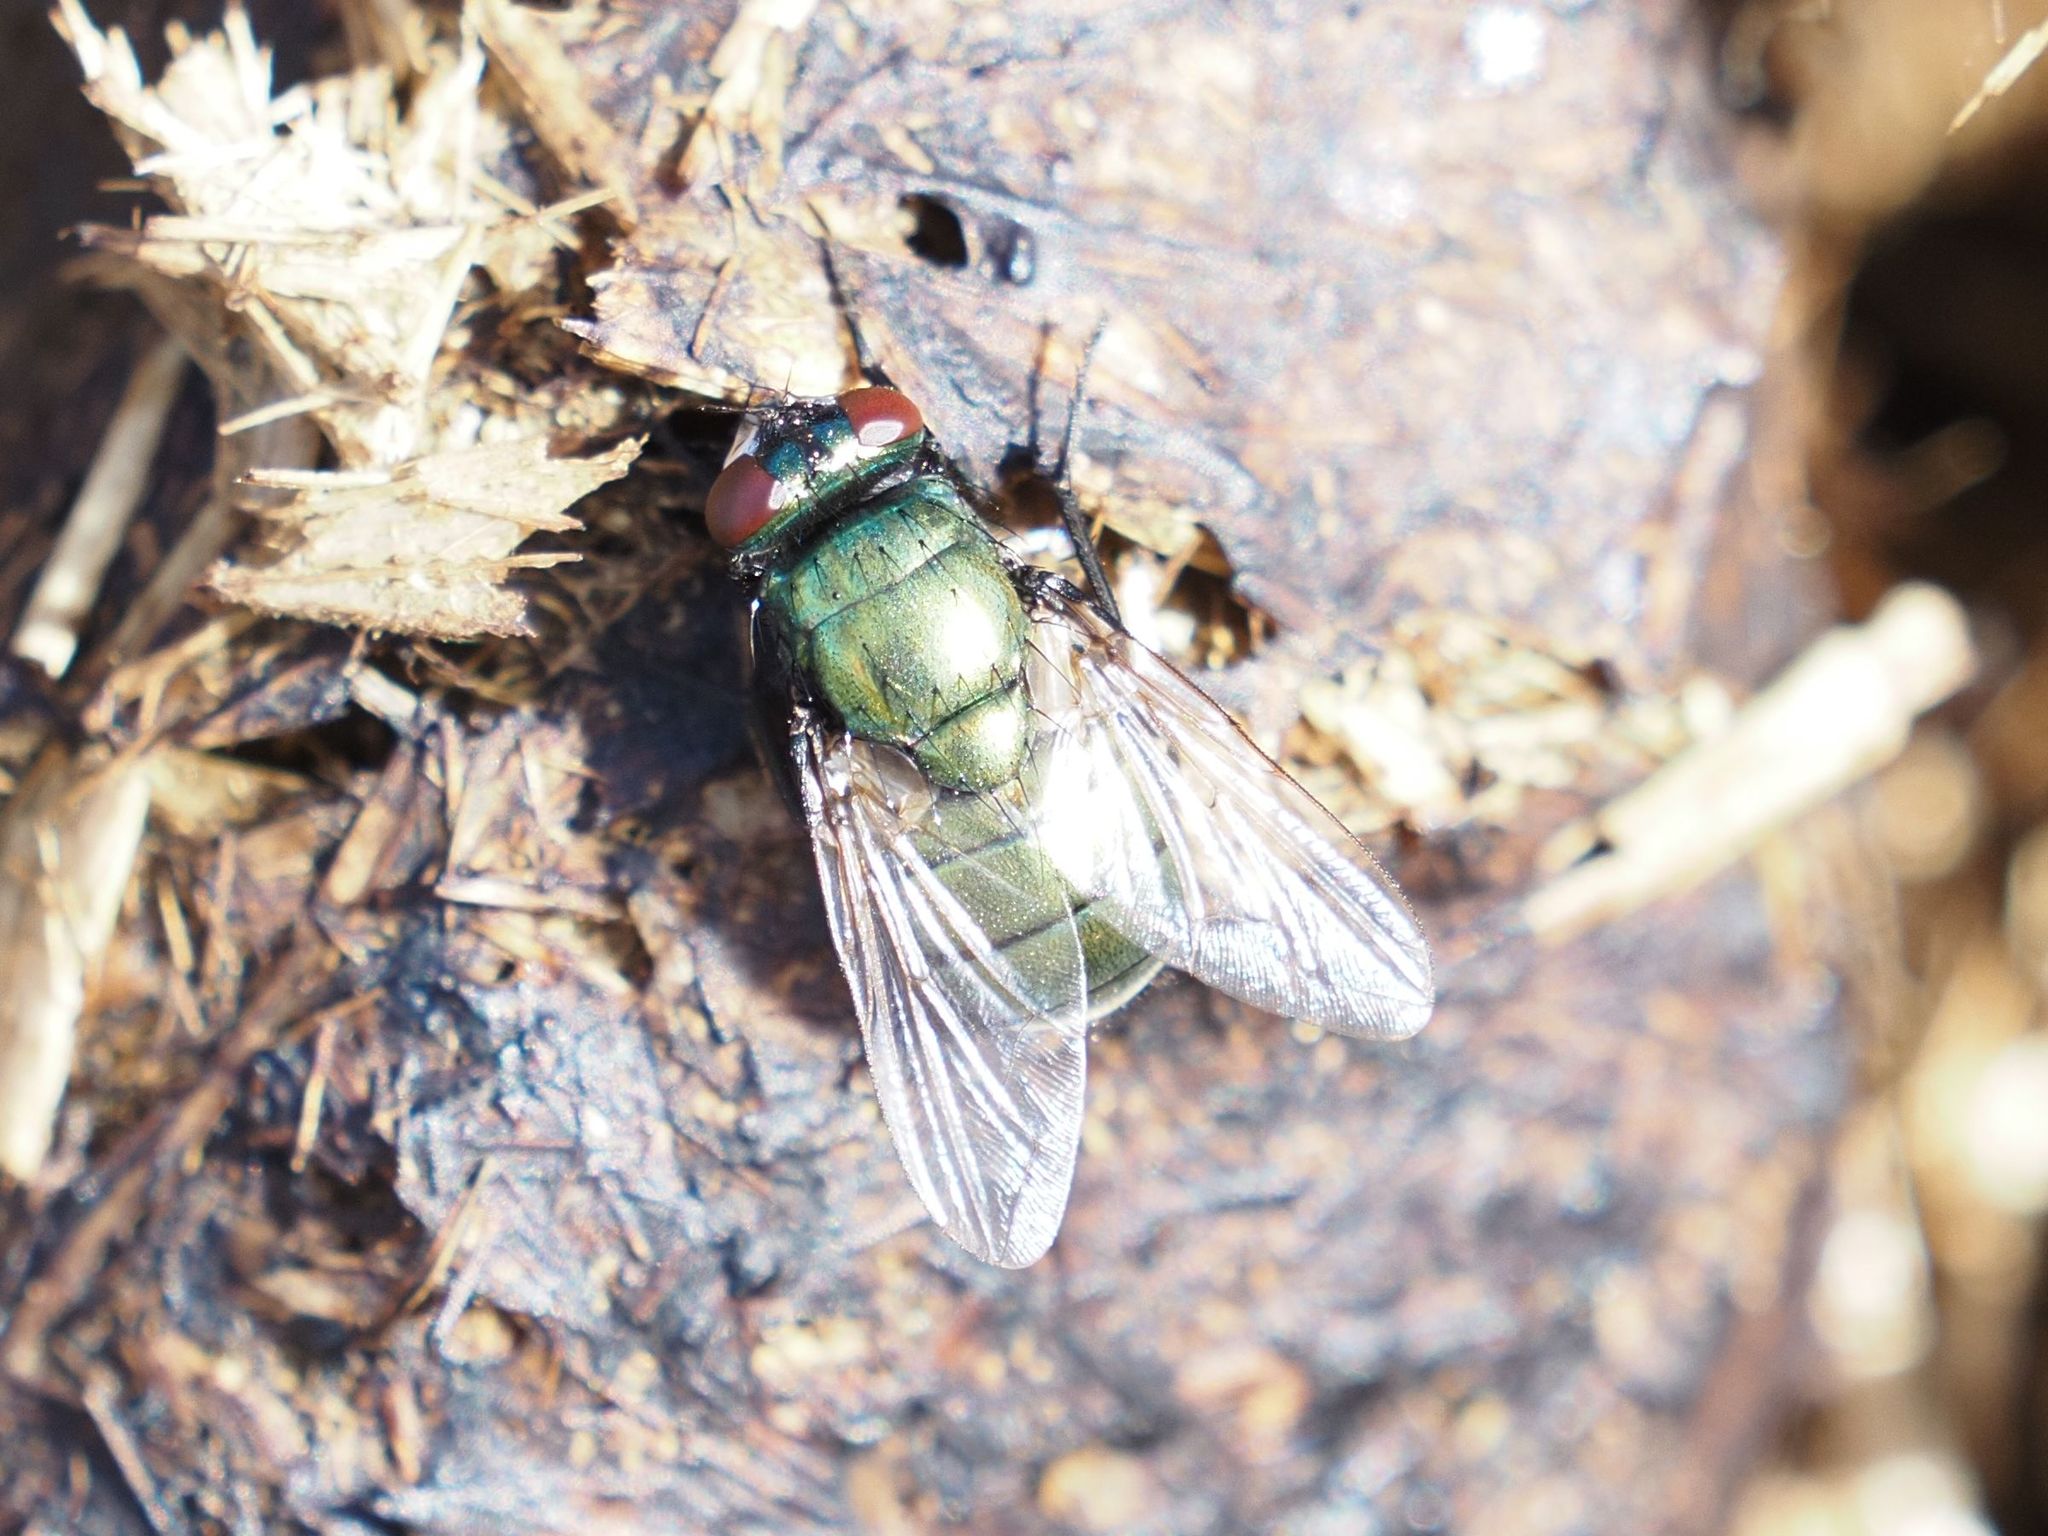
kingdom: Animalia
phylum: Arthropoda
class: Insecta
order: Diptera
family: Muscidae
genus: Neomyia
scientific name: Neomyia cornicina
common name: House fly
